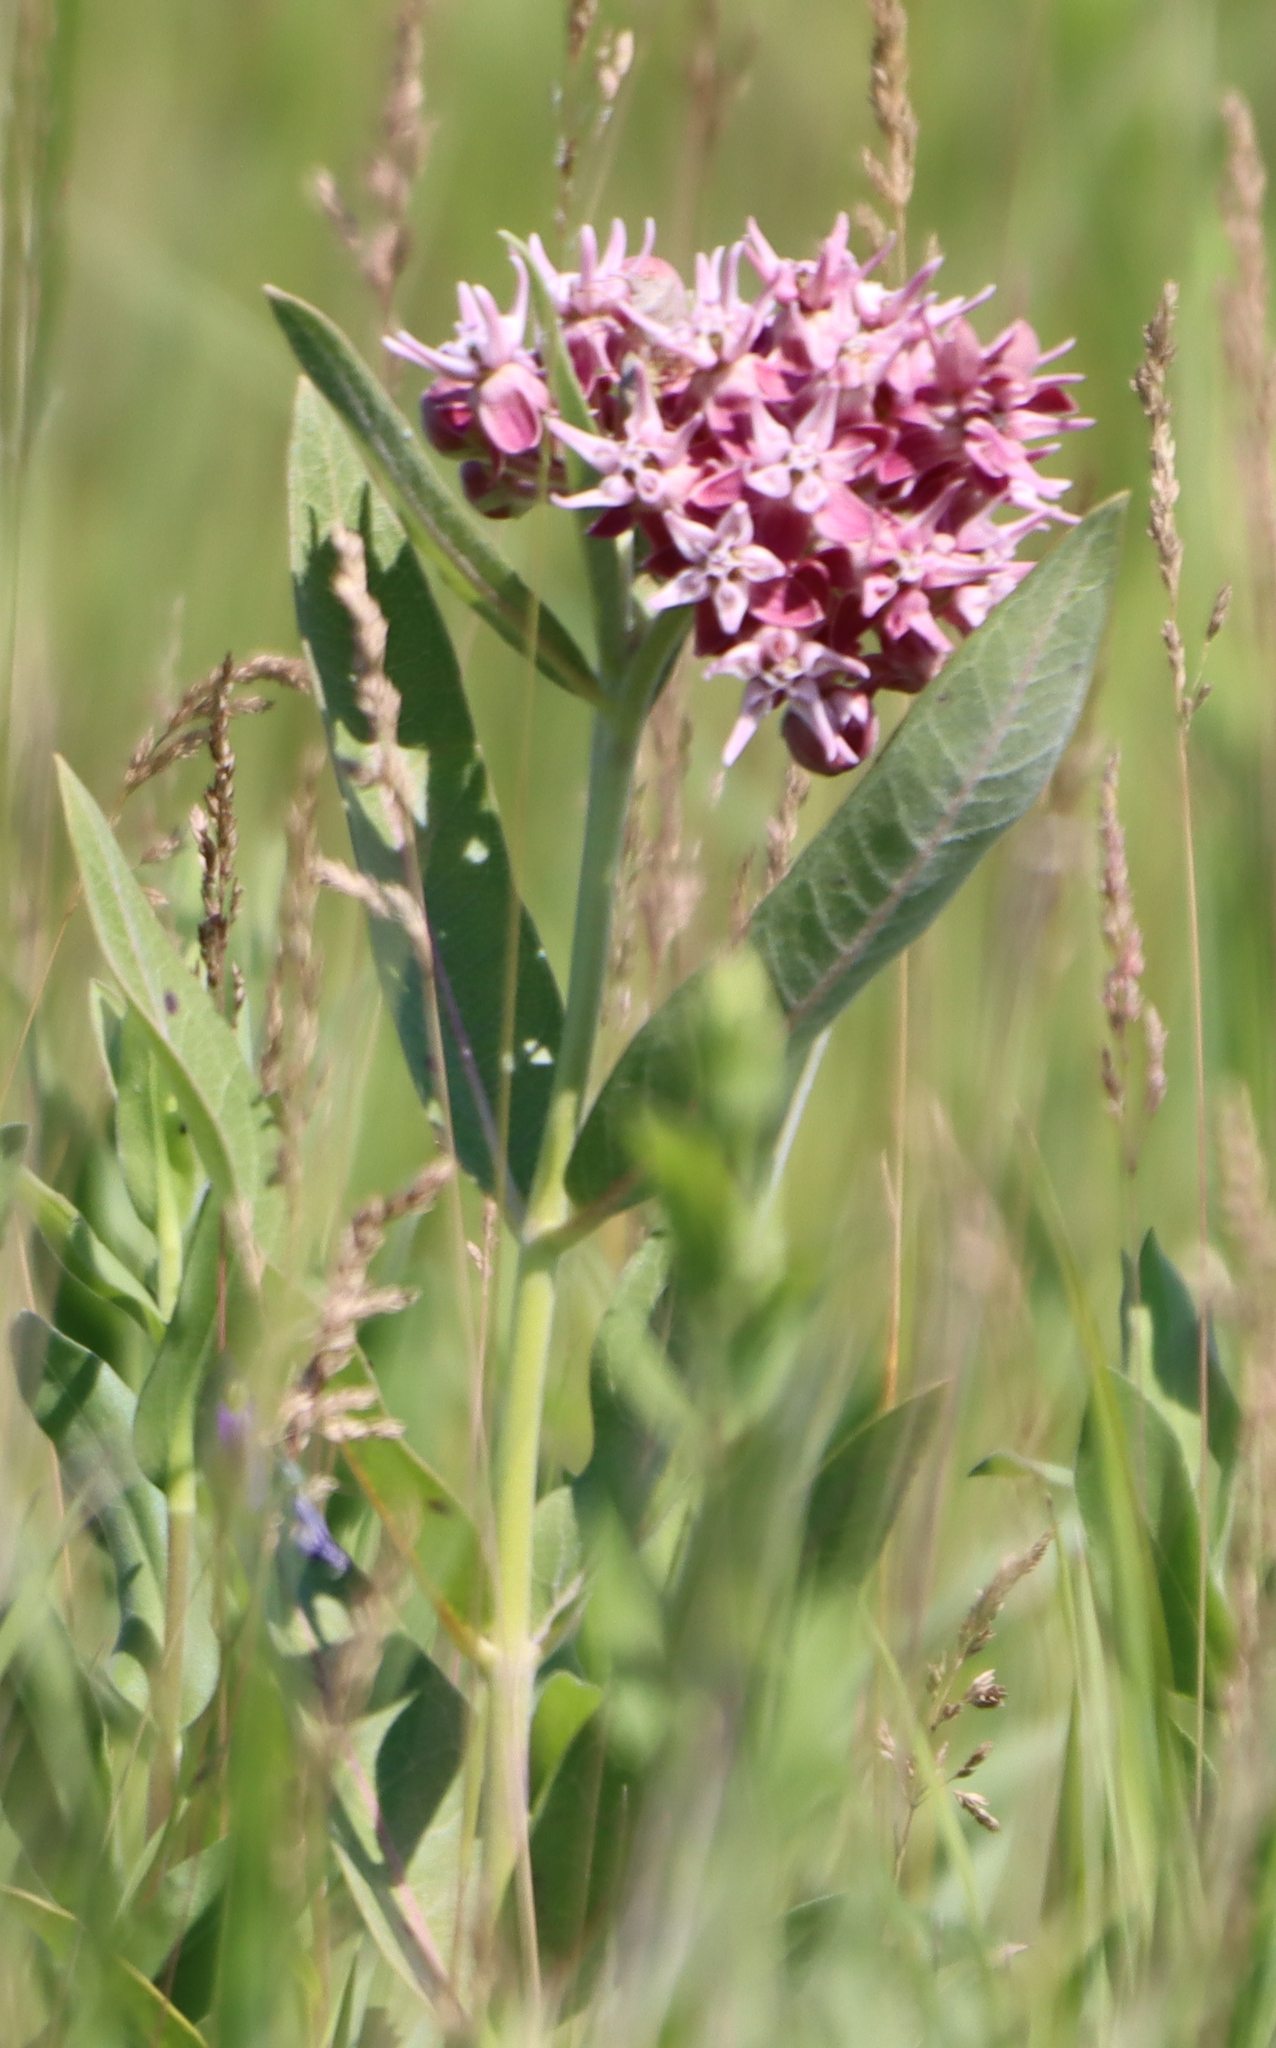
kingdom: Plantae
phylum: Tracheophyta
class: Magnoliopsida
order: Gentianales
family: Apocynaceae
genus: Asclepias
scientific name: Asclepias speciosa
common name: Showy milkweed
